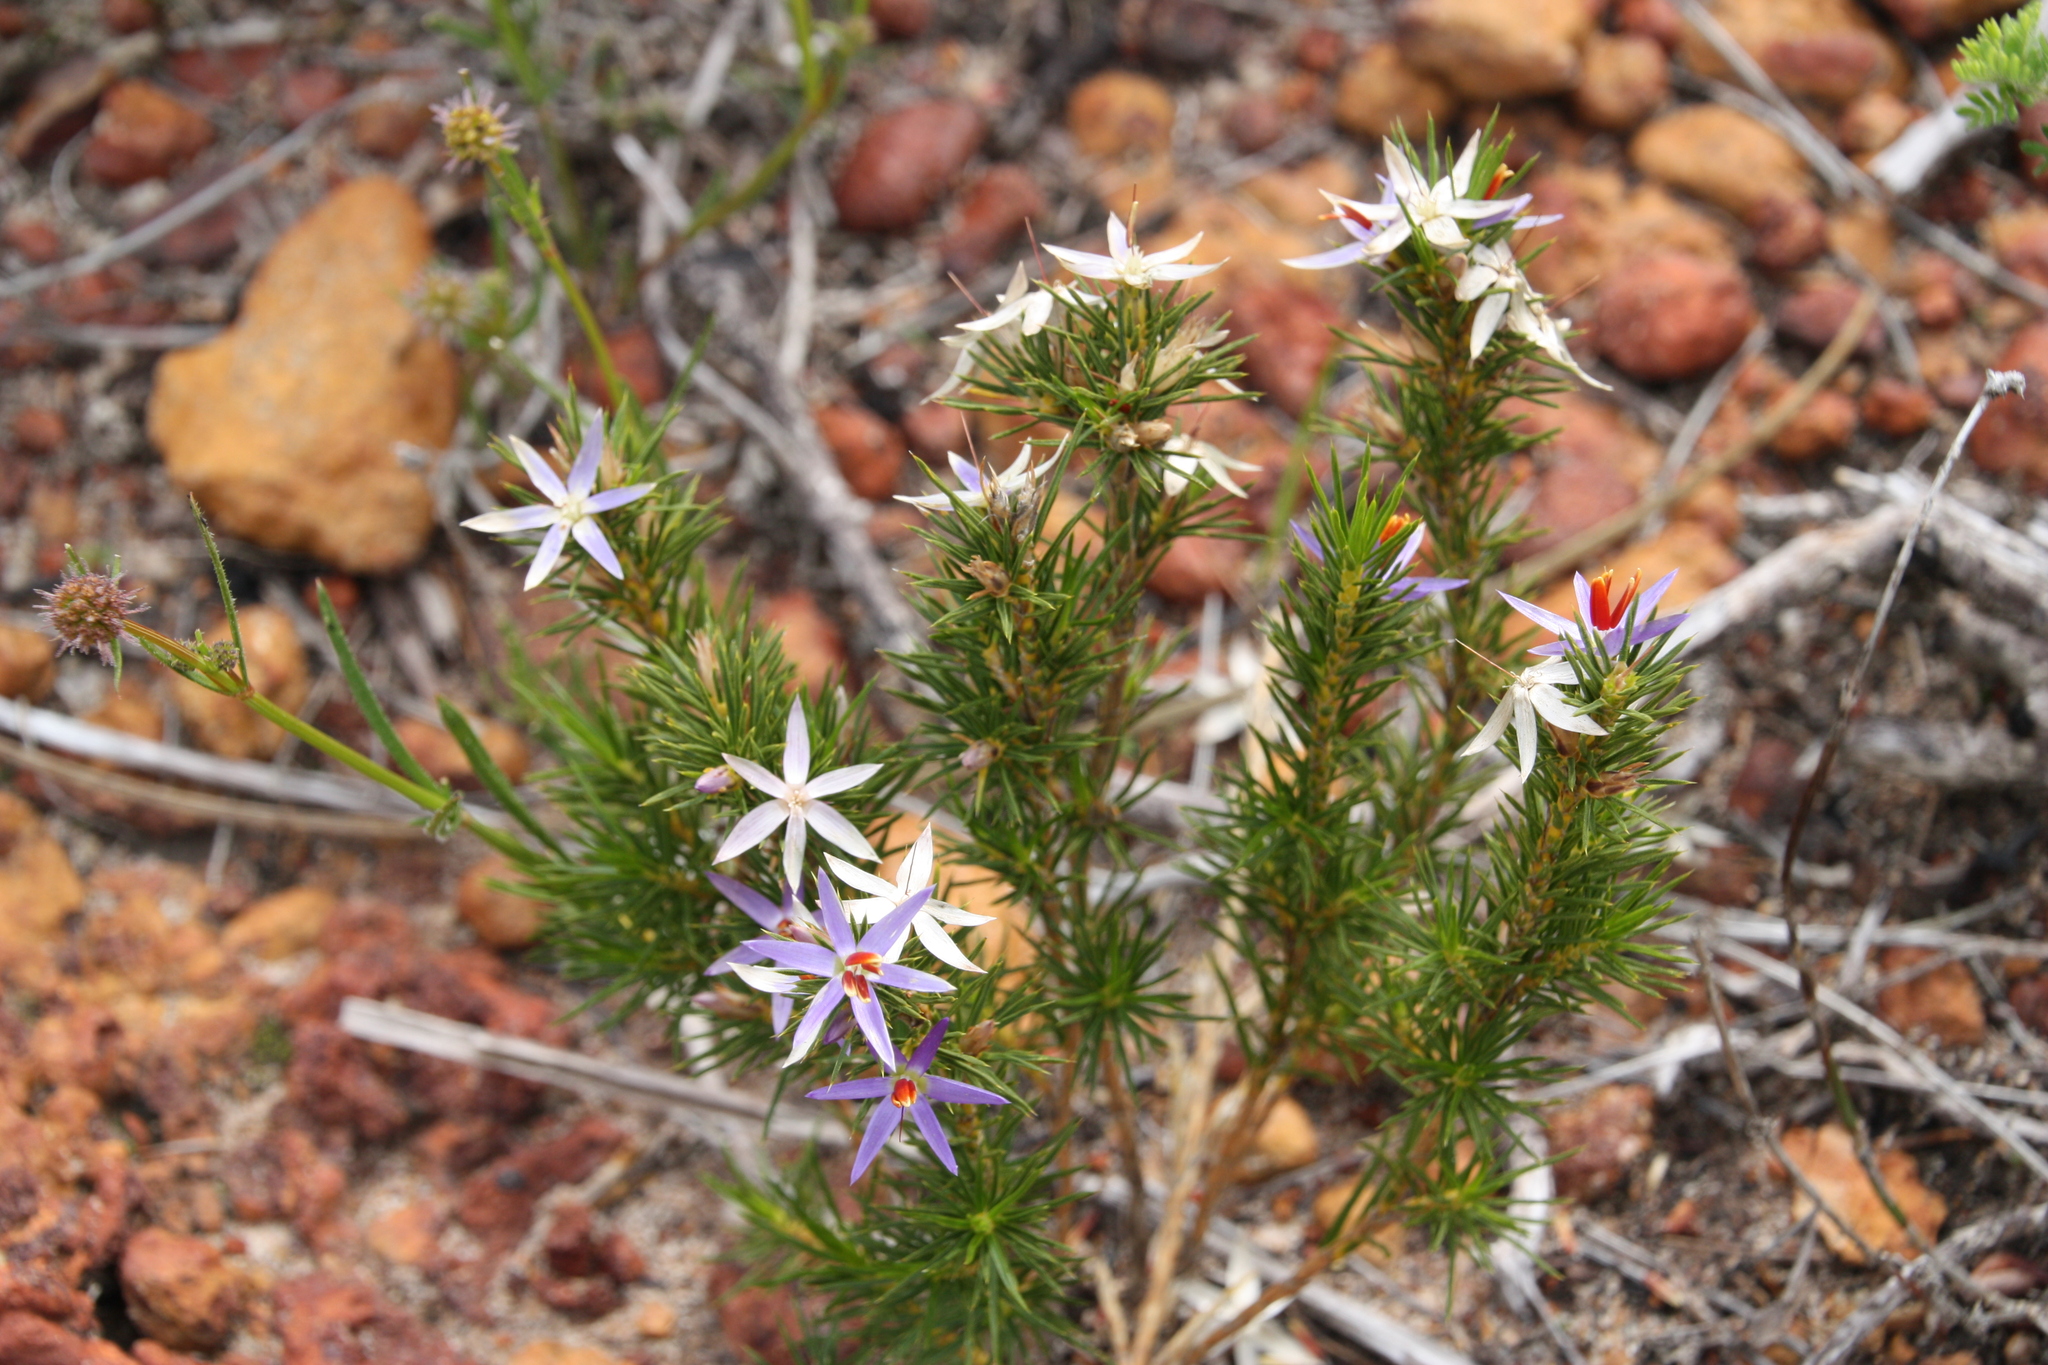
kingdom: Plantae
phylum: Tracheophyta
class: Liliopsida
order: Arecales
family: Dasypogonaceae
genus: Calectasia
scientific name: Calectasia narragara
